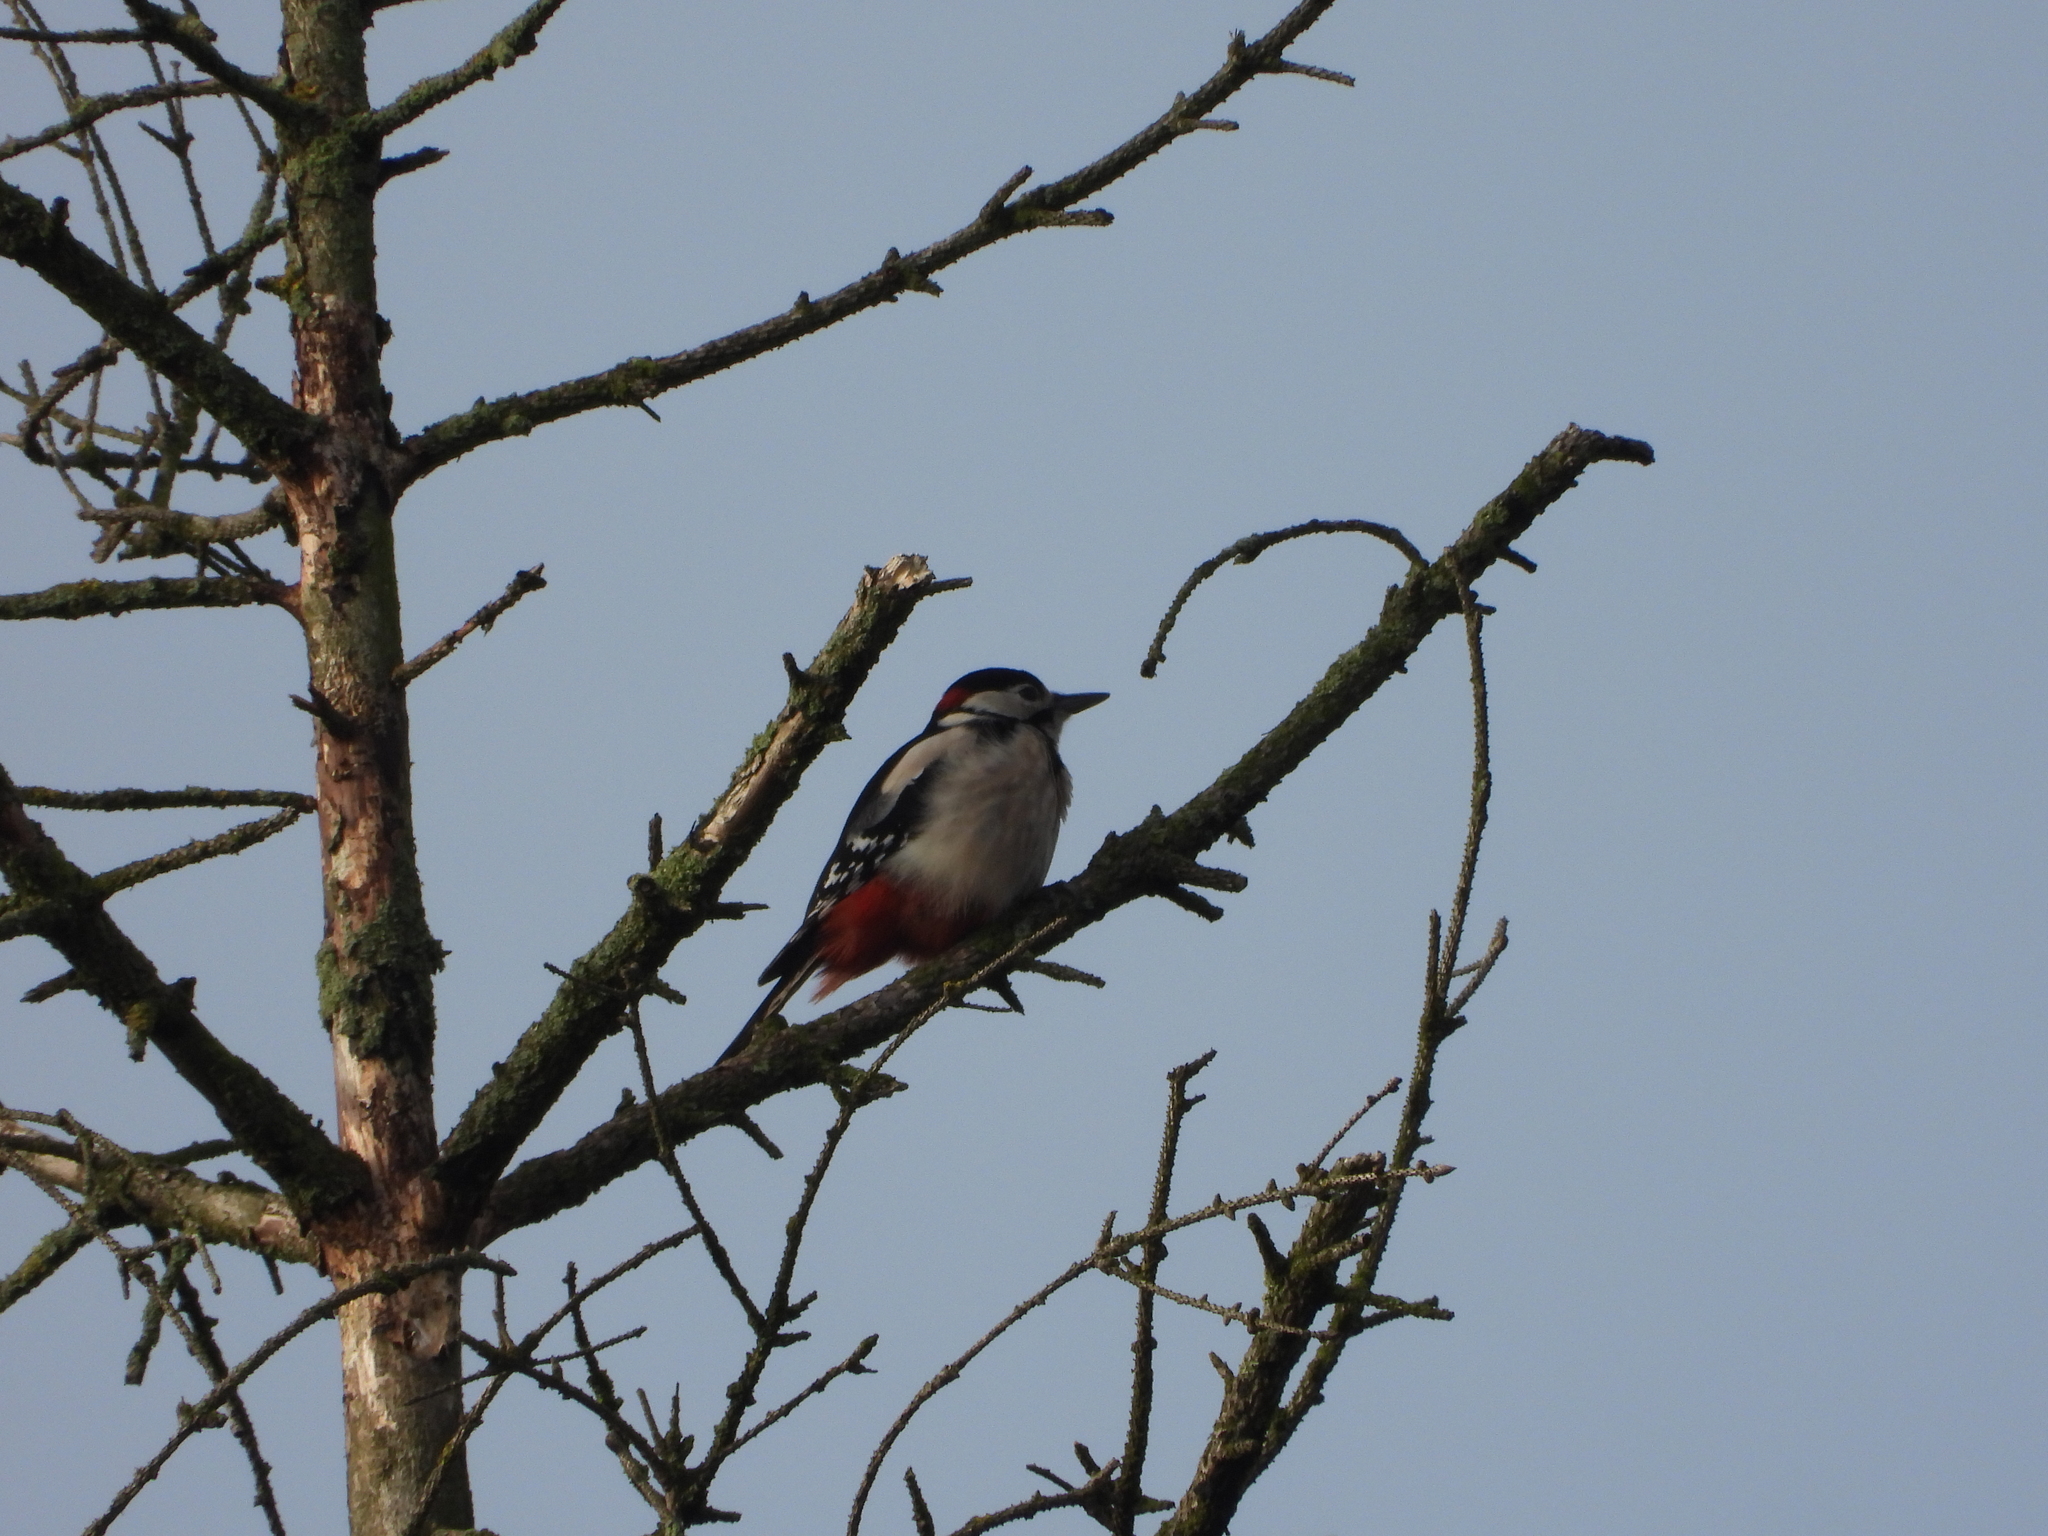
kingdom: Animalia
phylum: Chordata
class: Aves
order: Piciformes
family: Picidae
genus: Dendrocopos
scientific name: Dendrocopos major
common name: Great spotted woodpecker
